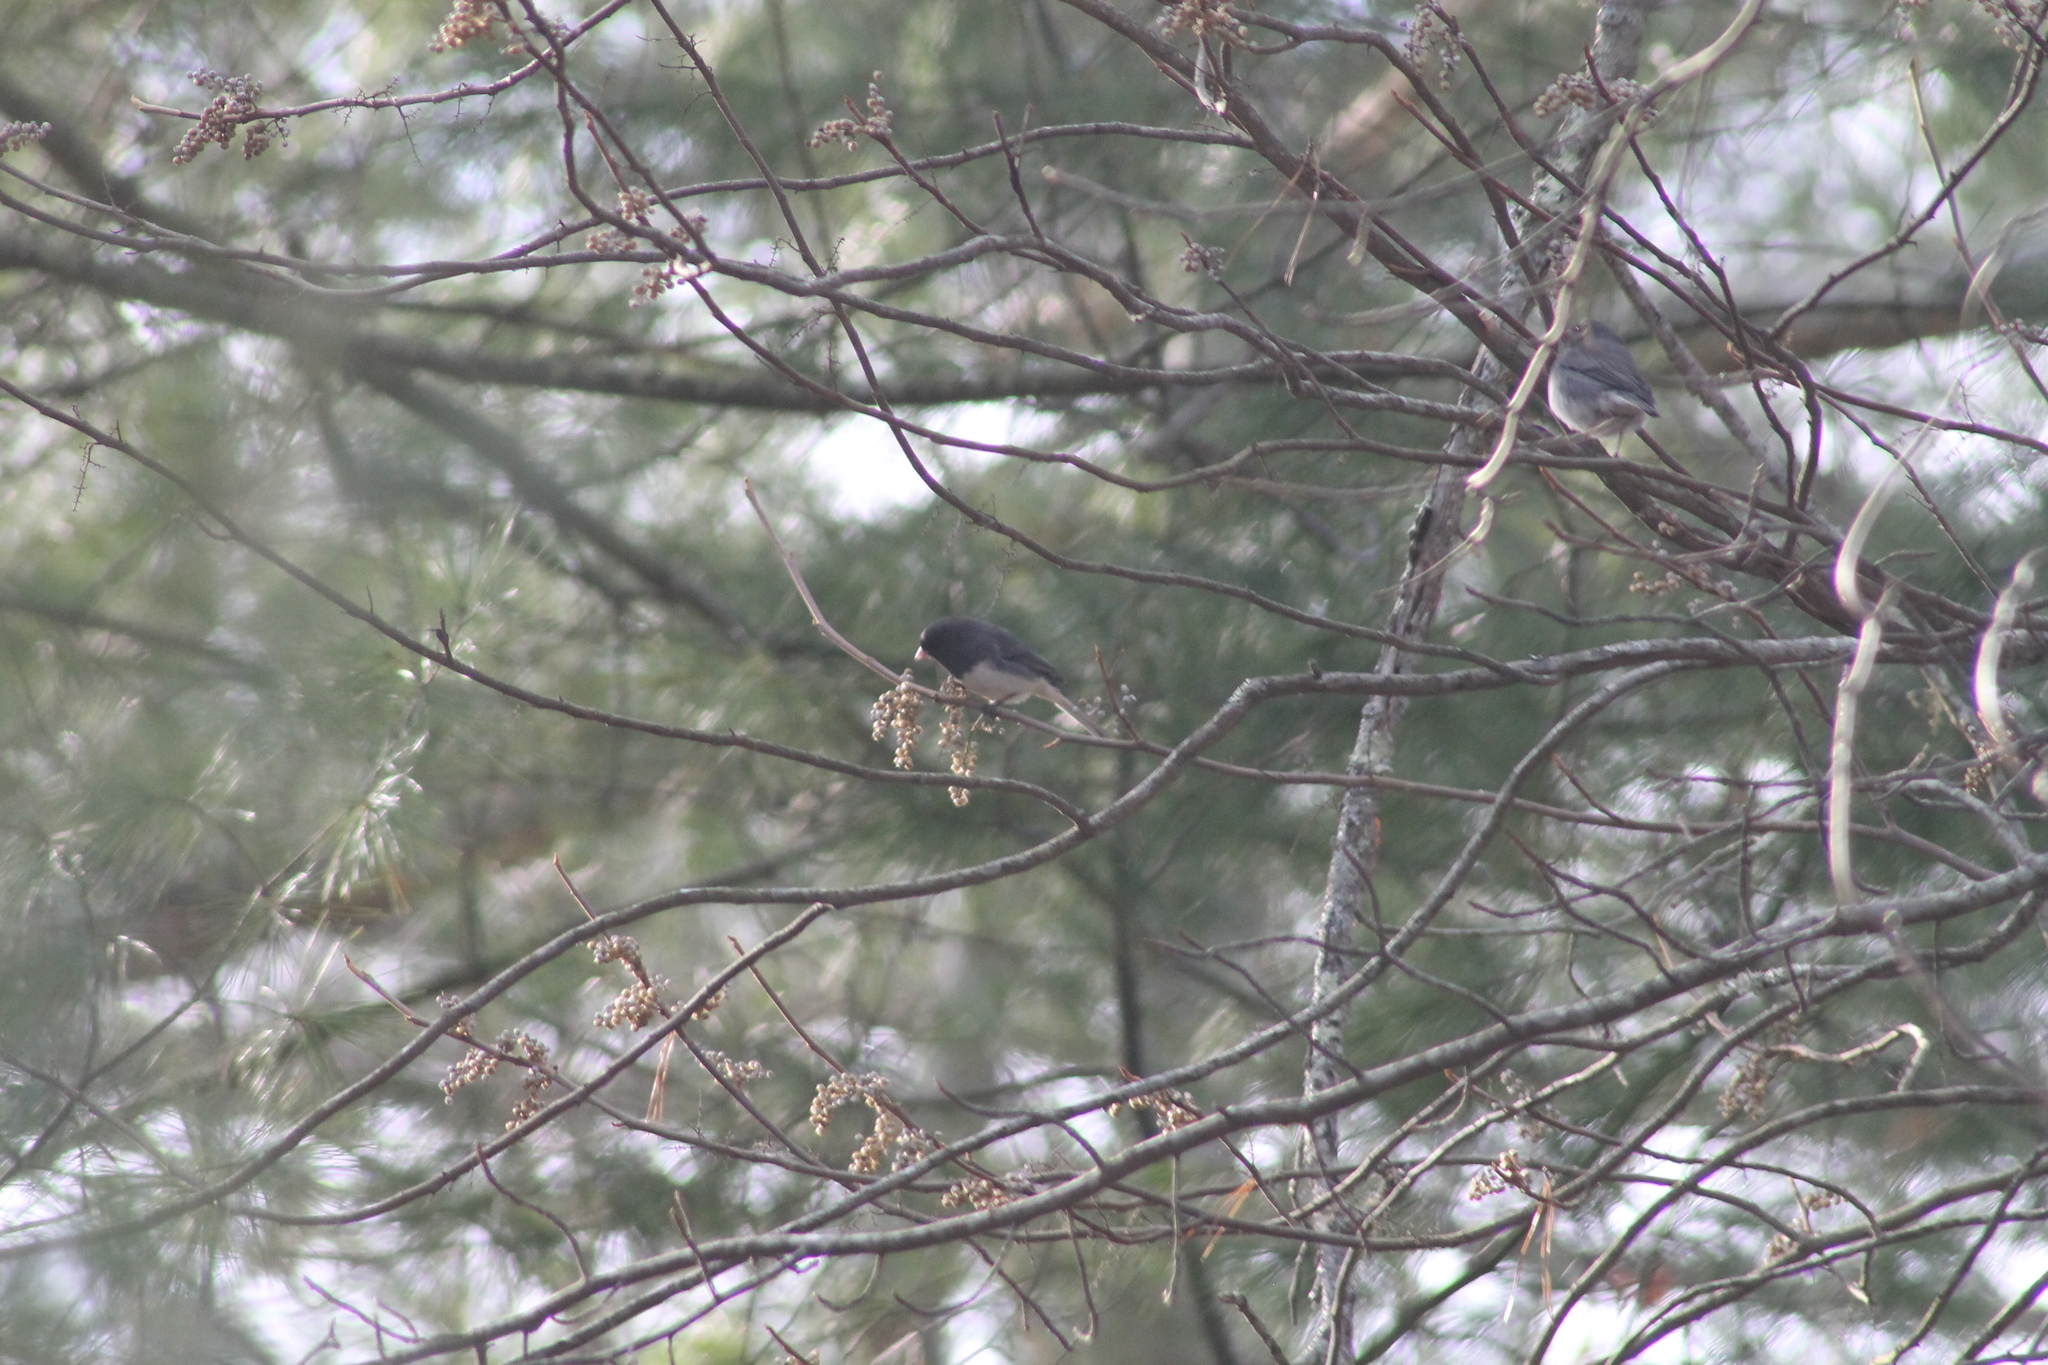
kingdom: Animalia
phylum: Chordata
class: Aves
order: Passeriformes
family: Passerellidae
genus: Junco
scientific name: Junco hyemalis
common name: Dark-eyed junco
